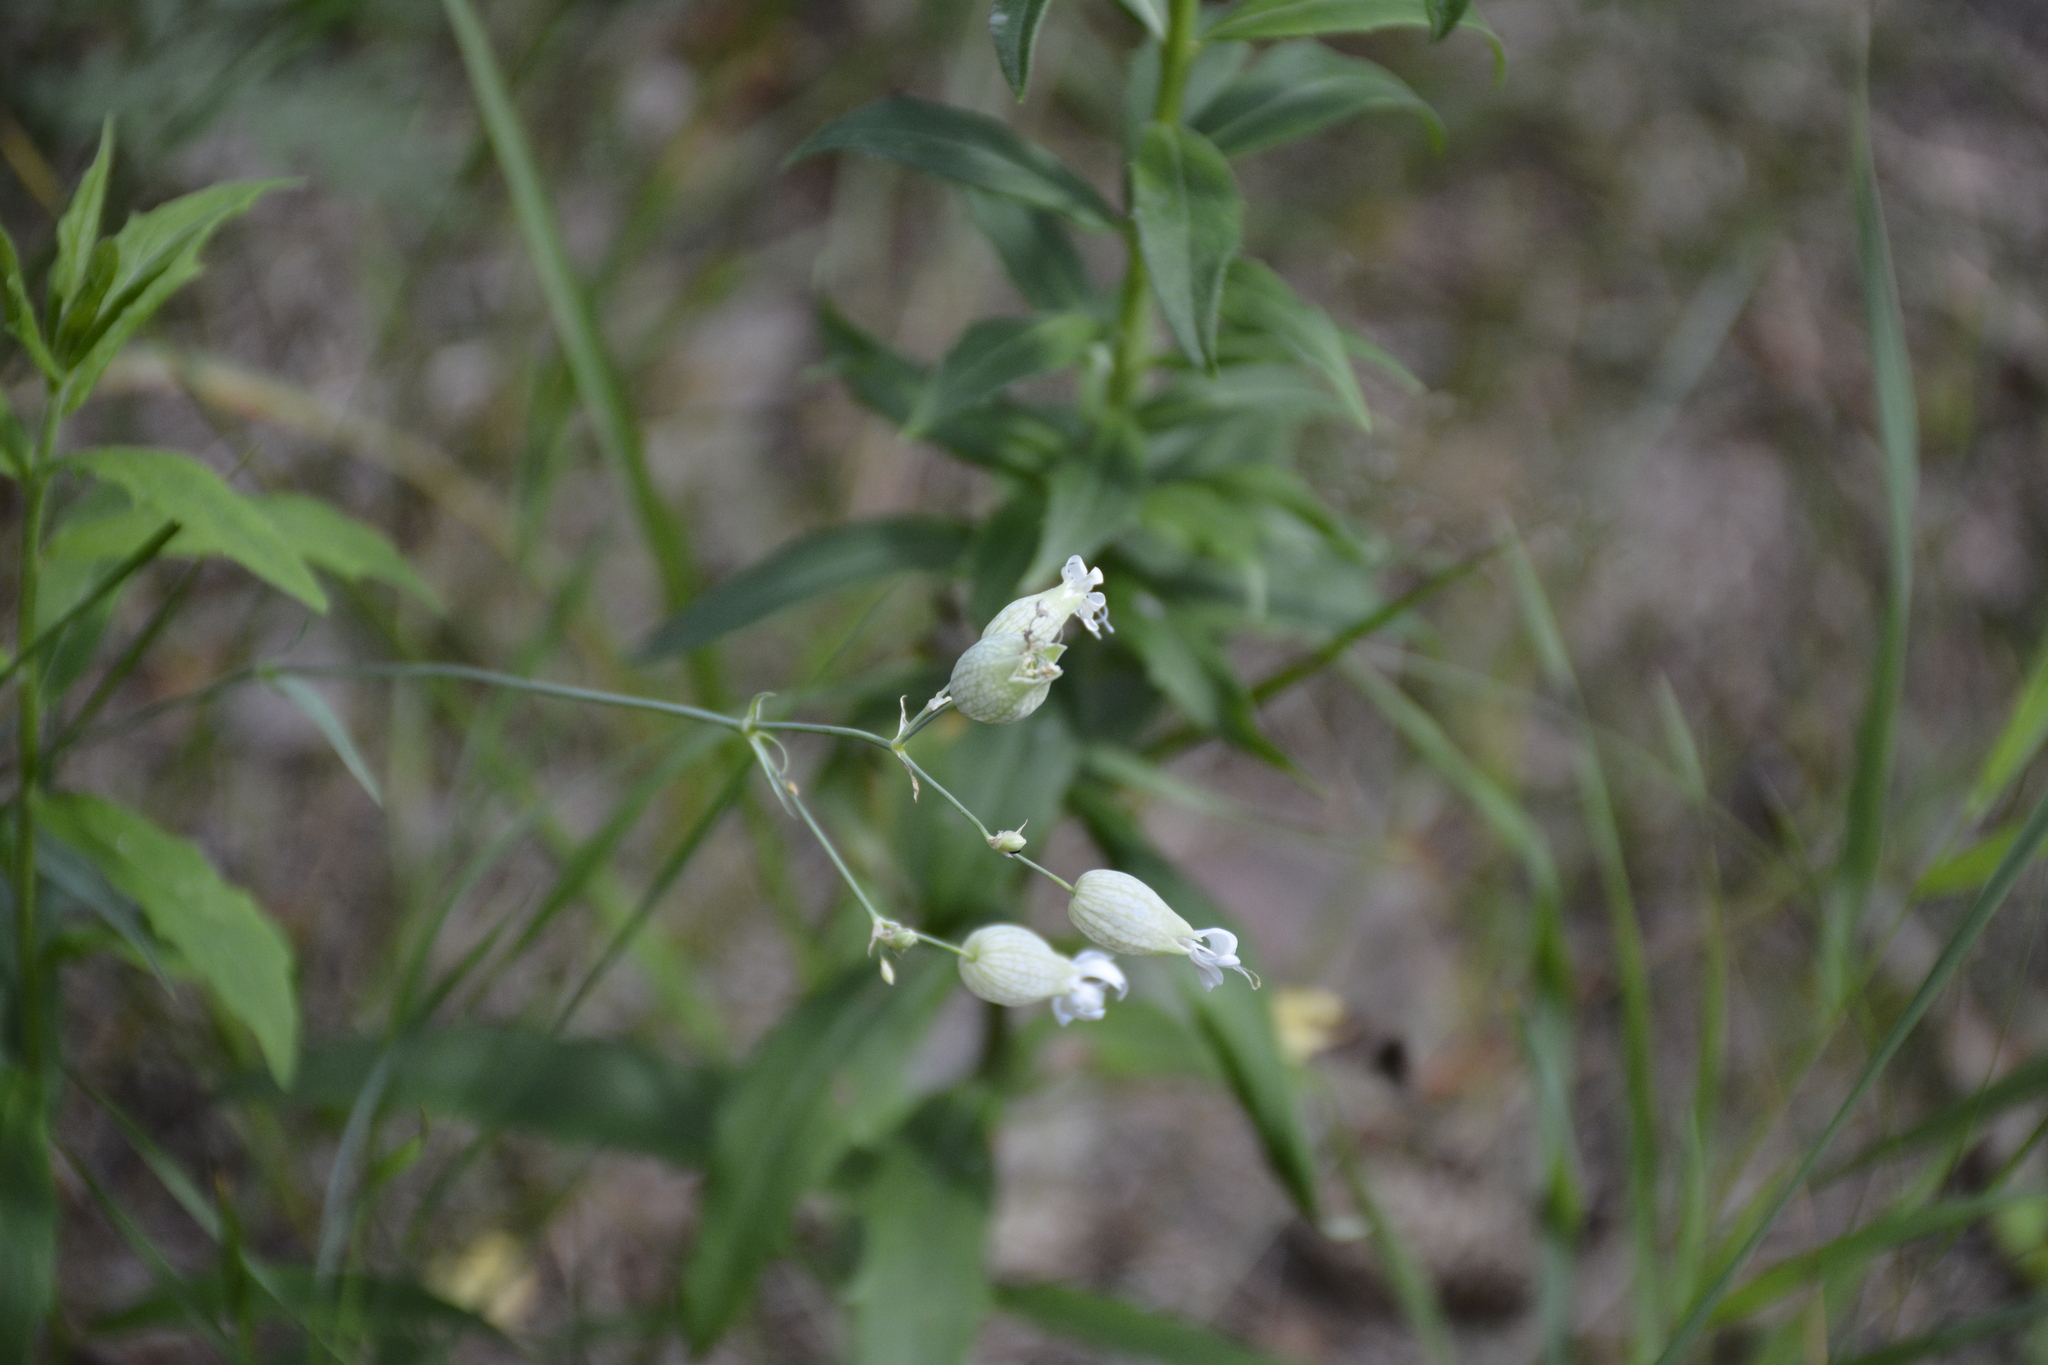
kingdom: Plantae
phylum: Tracheophyta
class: Magnoliopsida
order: Caryophyllales
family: Caryophyllaceae
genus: Silene
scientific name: Silene vulgaris
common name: Bladder campion
